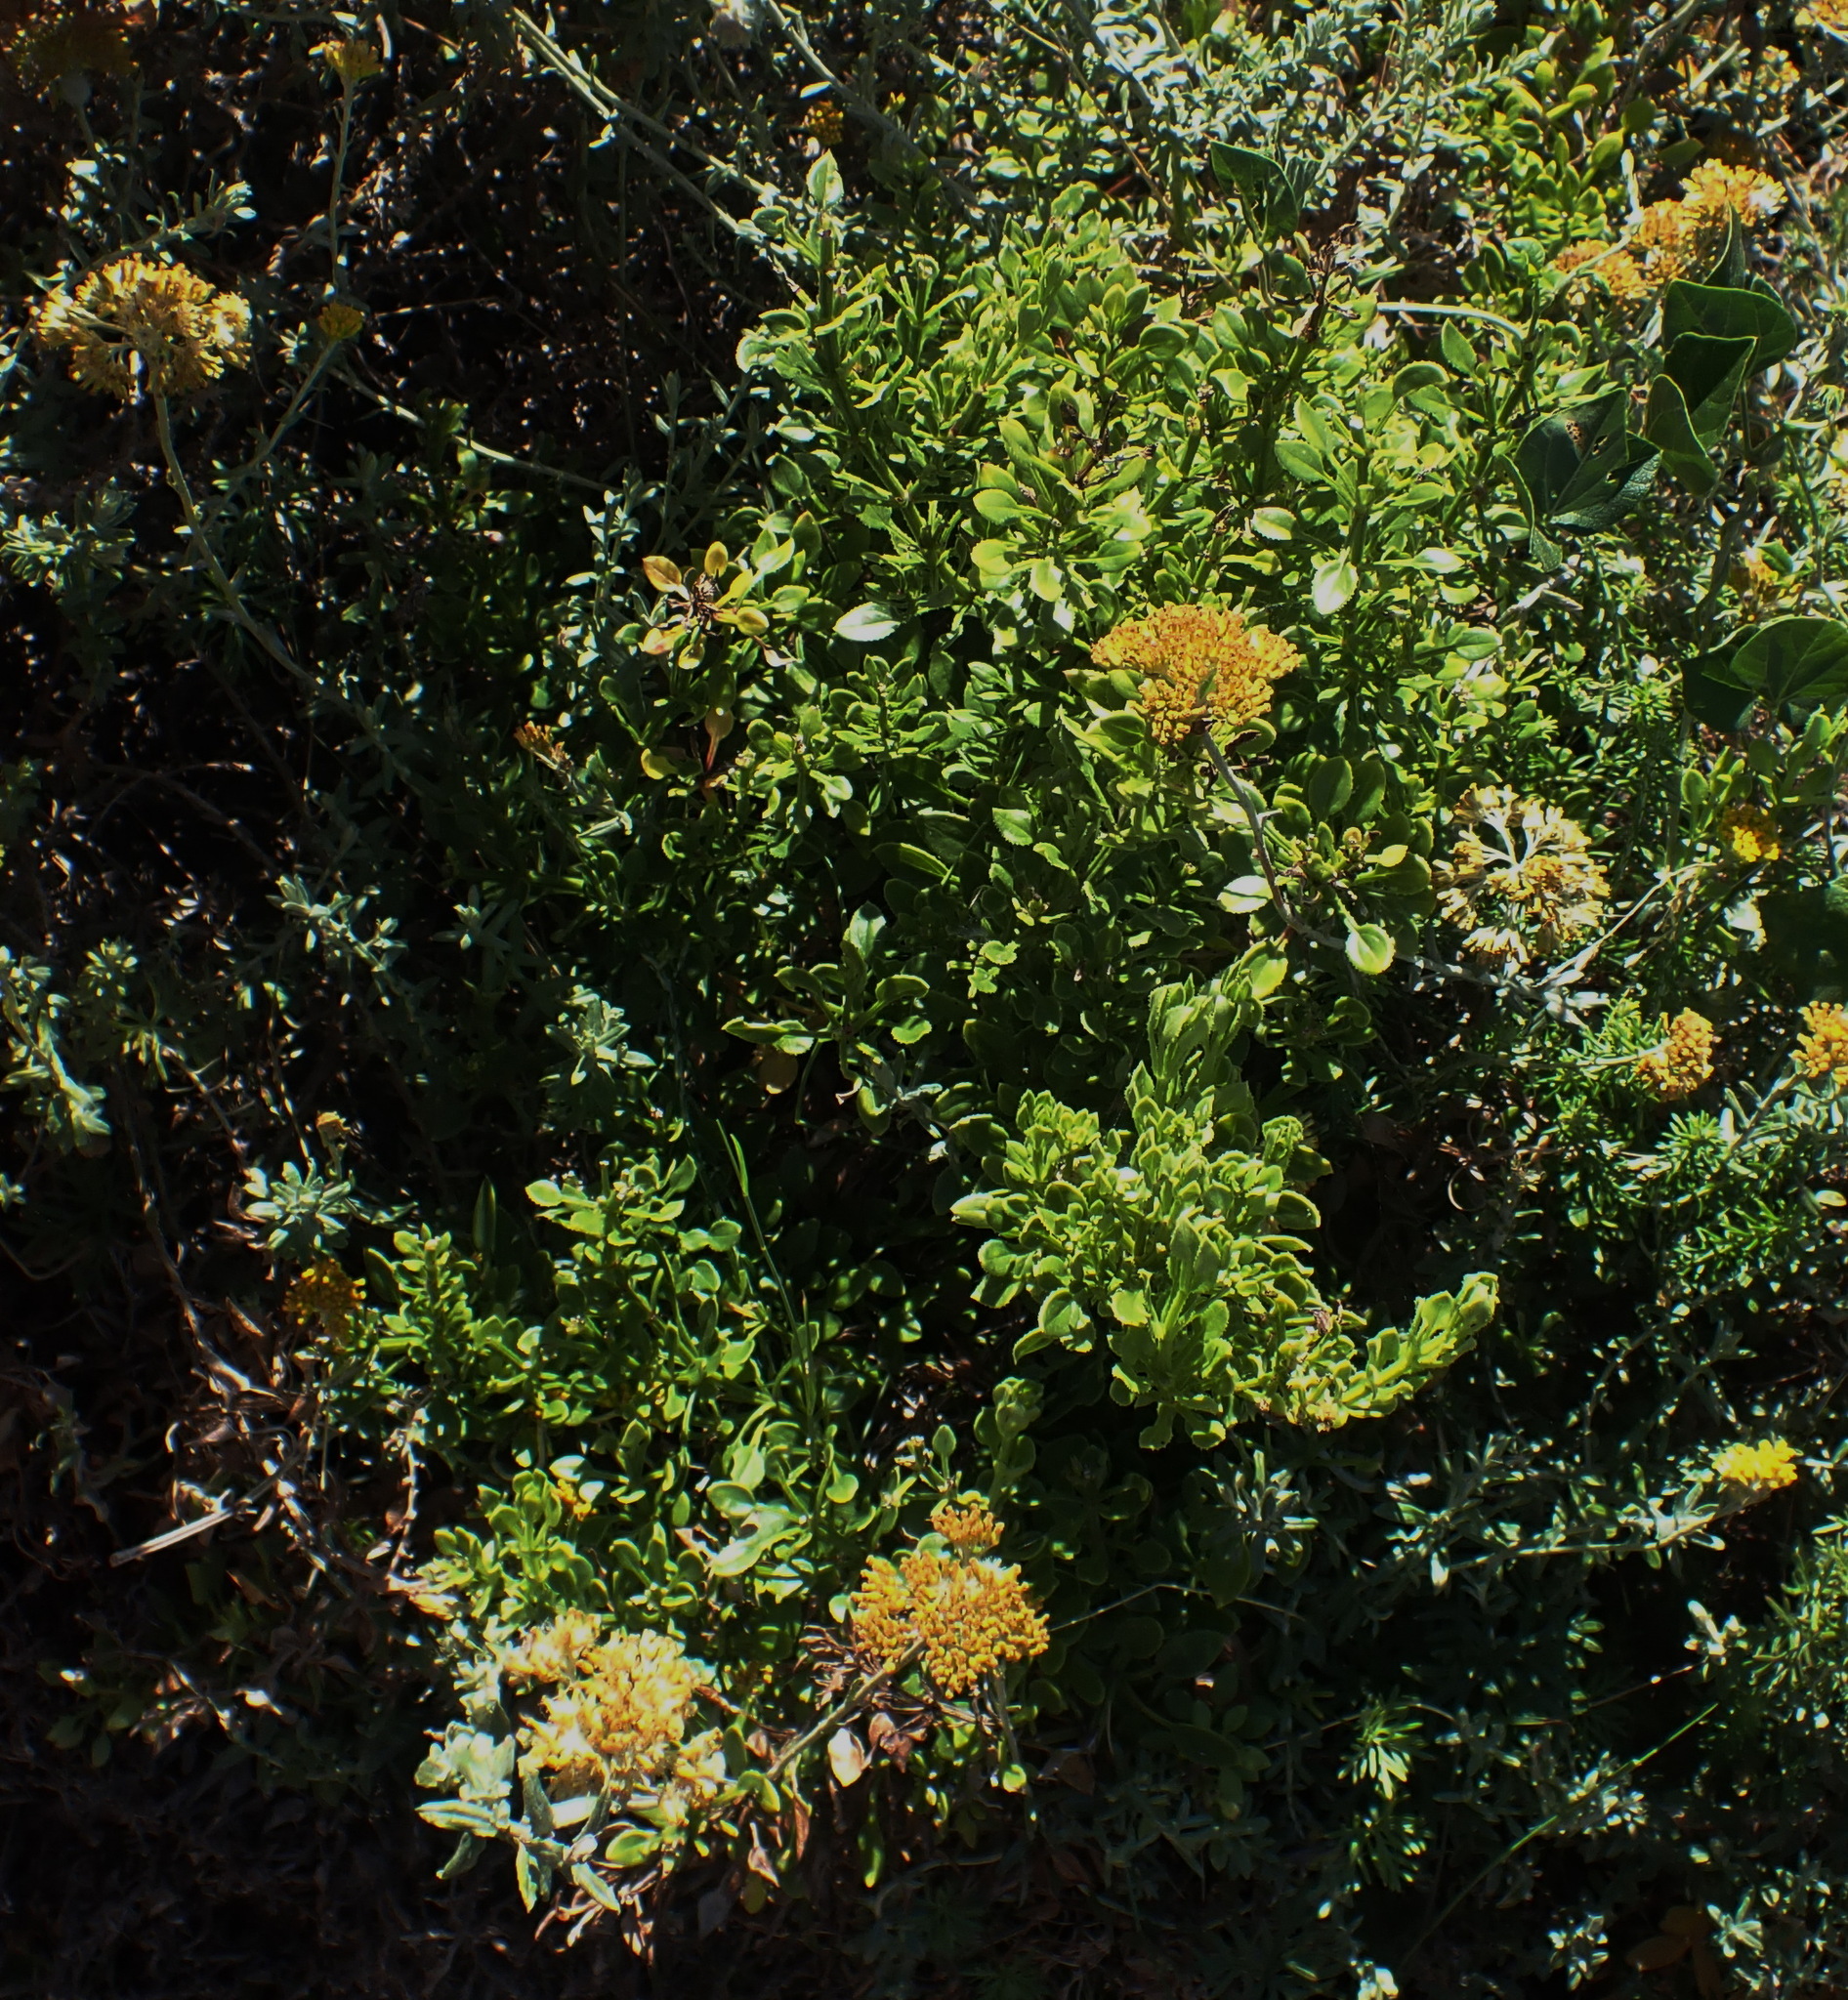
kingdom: Plantae
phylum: Tracheophyta
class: Magnoliopsida
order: Gentianales
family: Rubiaceae
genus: Rubia
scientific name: Rubia petiolaris
